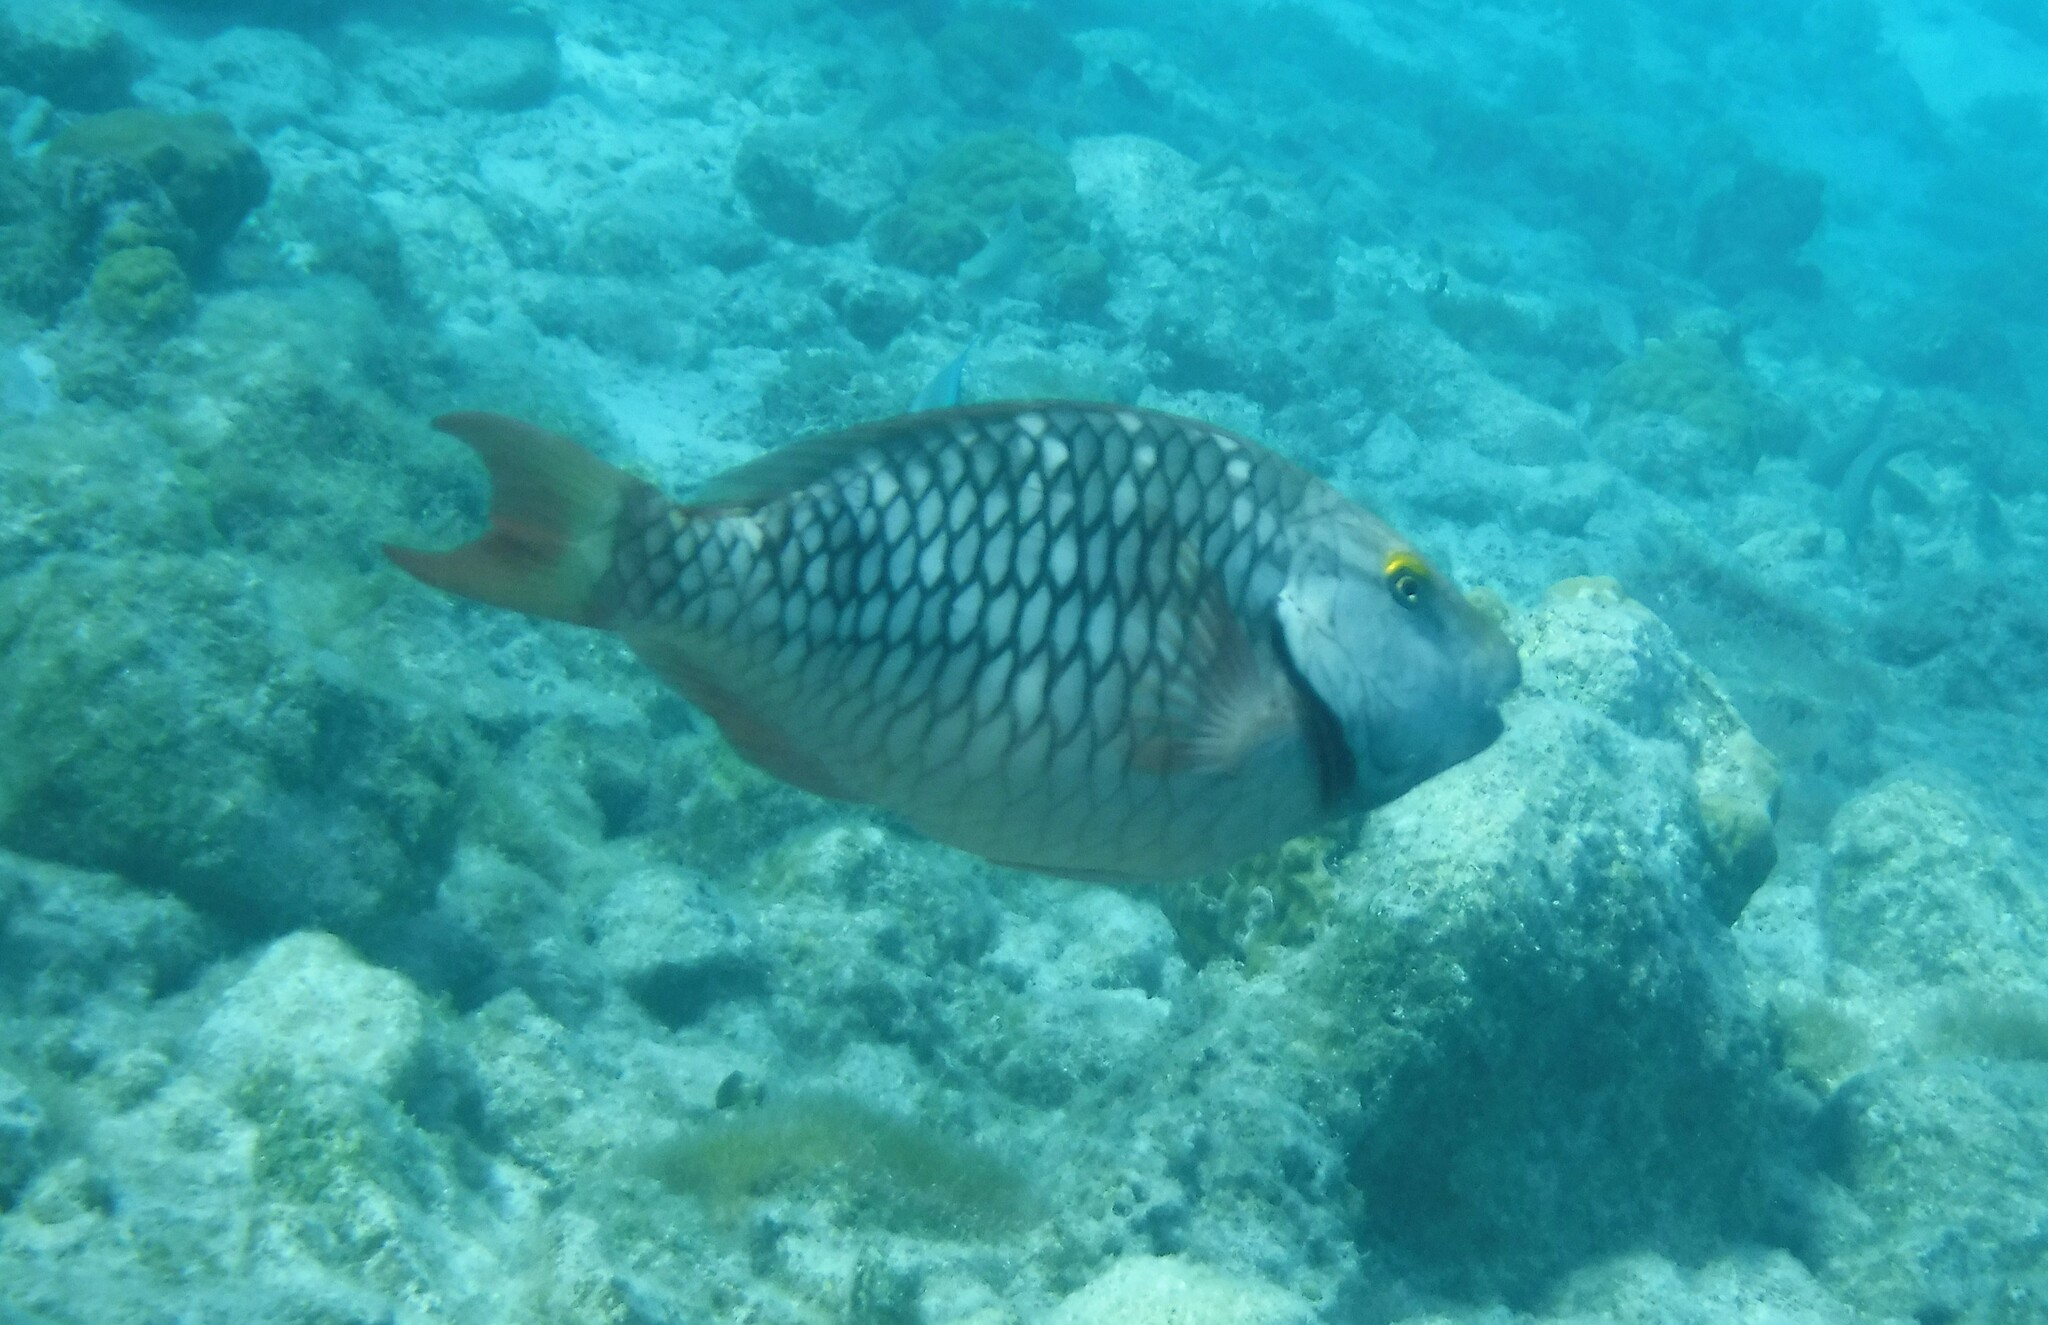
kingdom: Animalia
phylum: Chordata
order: Perciformes
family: Scaridae
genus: Sparisoma
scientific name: Sparisoma viride
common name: Stoplight parrotfish
